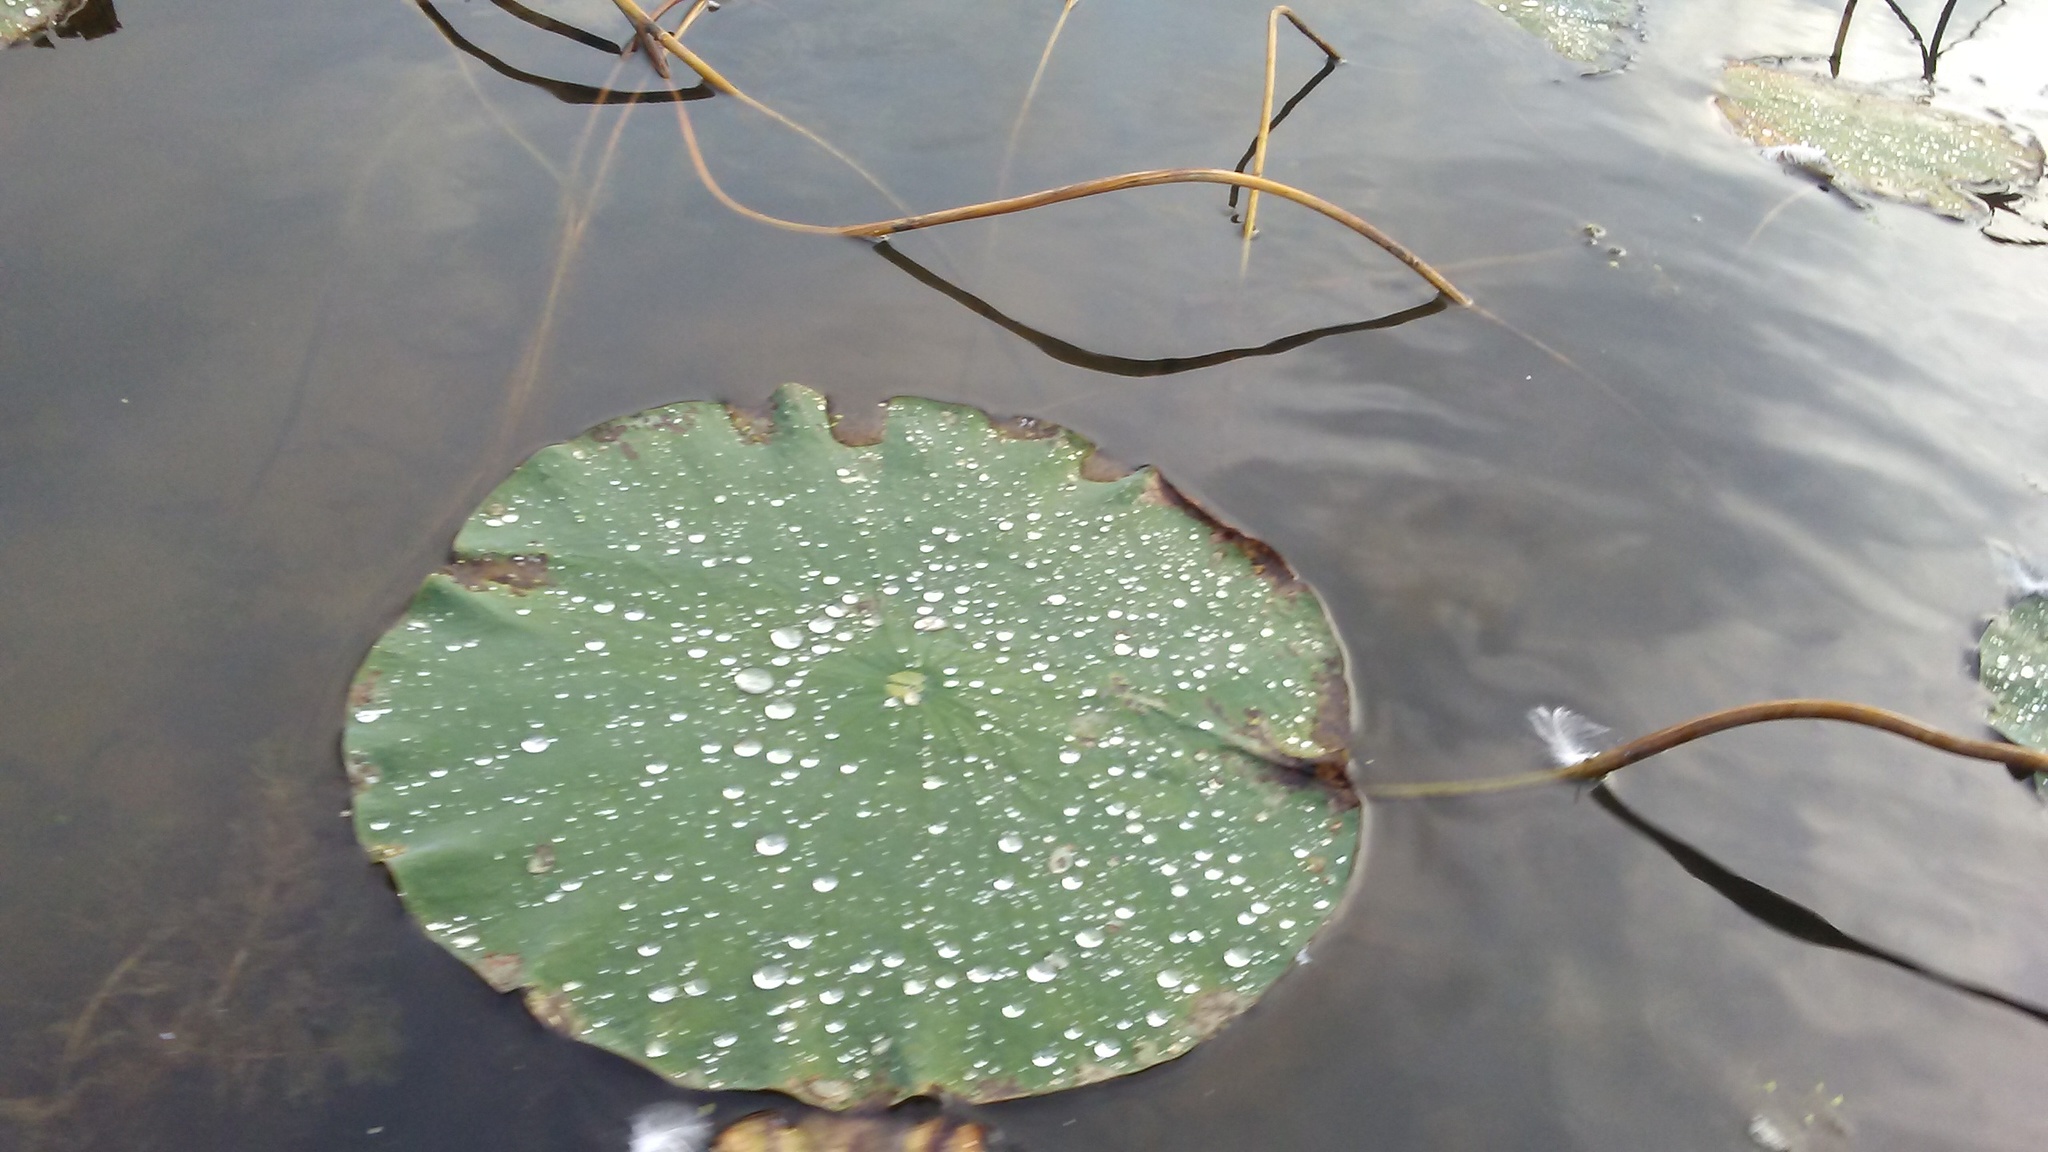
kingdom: Plantae
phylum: Tracheophyta
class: Magnoliopsida
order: Proteales
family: Nelumbonaceae
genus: Nelumbo
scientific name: Nelumbo lutea
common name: American lotus
